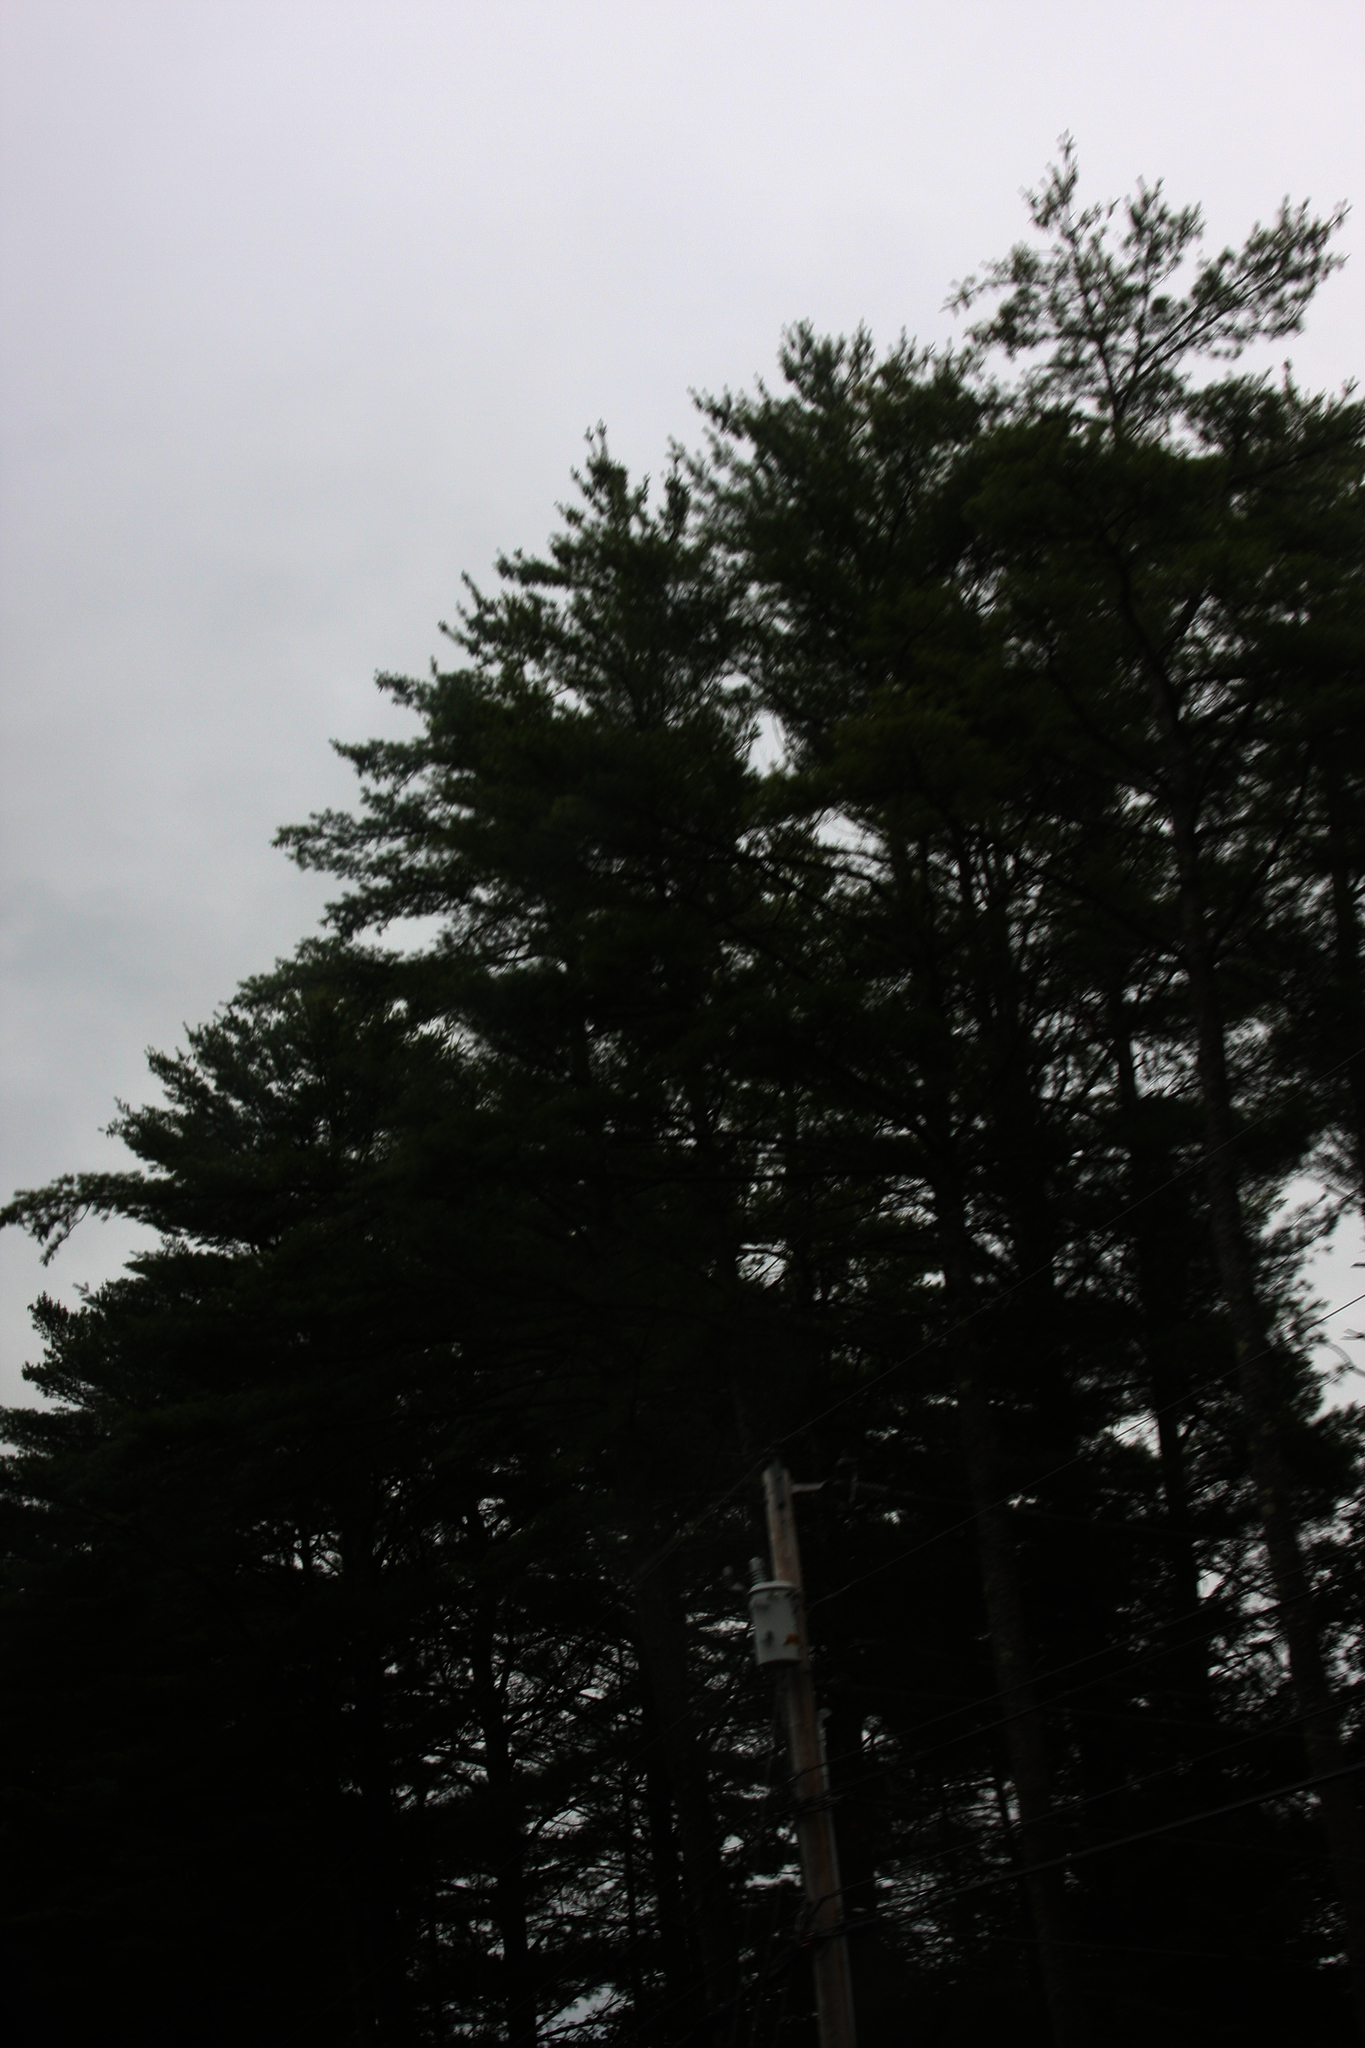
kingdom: Plantae
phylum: Tracheophyta
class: Pinopsida
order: Pinales
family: Pinaceae
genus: Pinus
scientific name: Pinus strobus
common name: Weymouth pine
